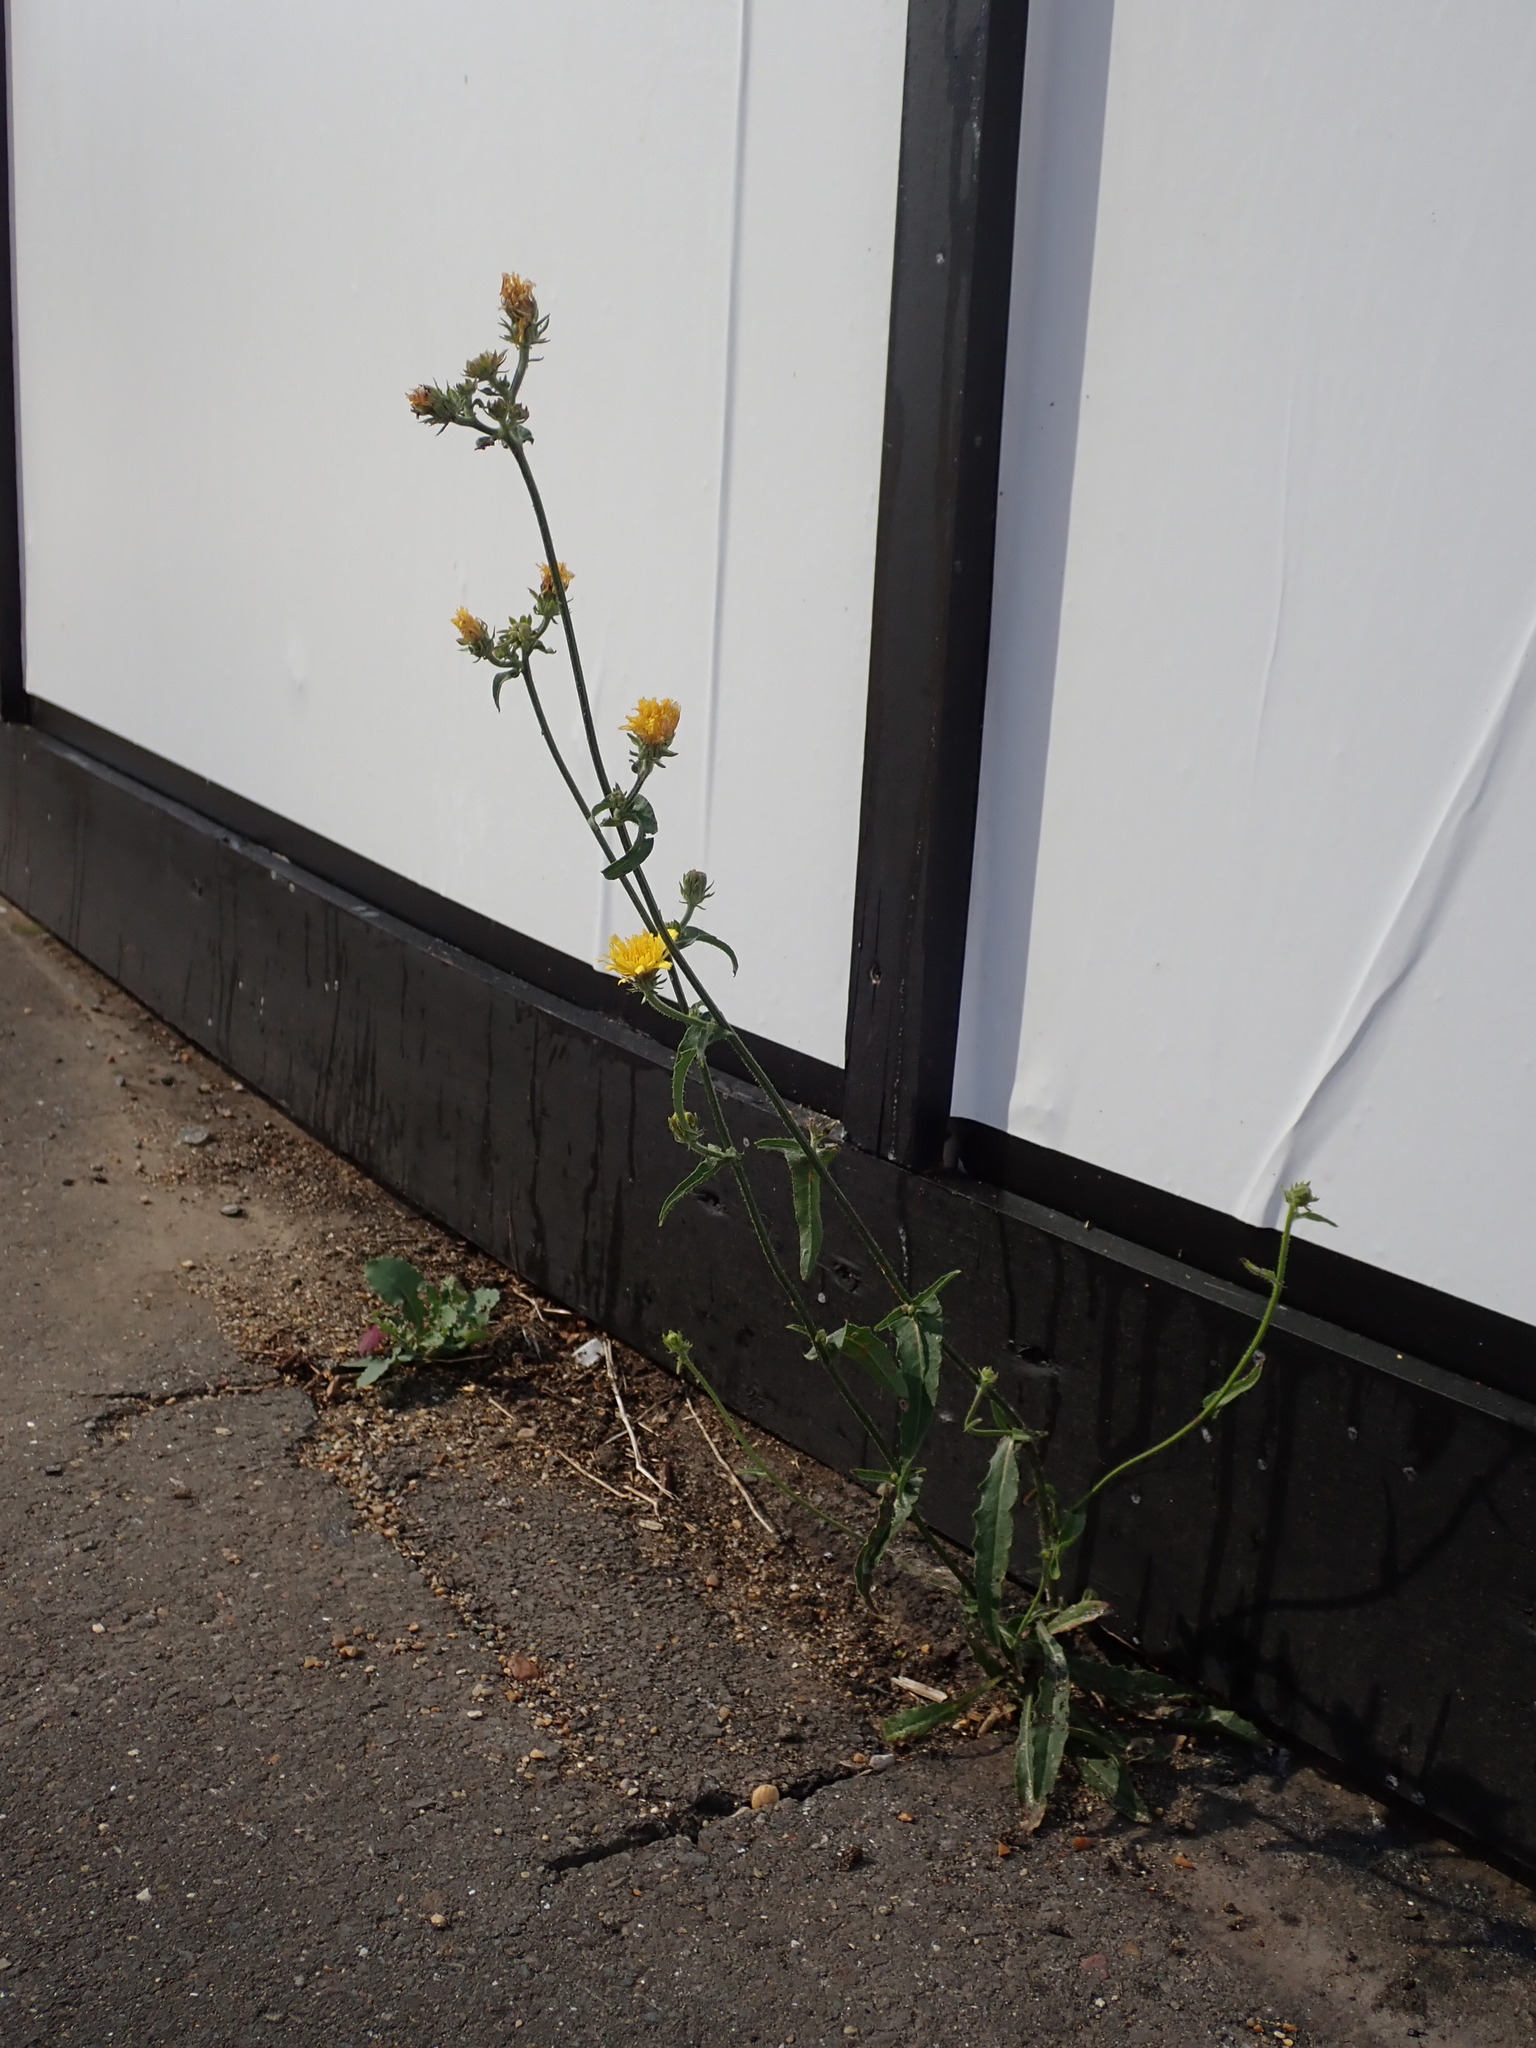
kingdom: Plantae
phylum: Tracheophyta
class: Magnoliopsida
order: Asterales
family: Asteraceae
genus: Picris
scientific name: Picris hieracioides
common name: Hawkweed oxtongue
